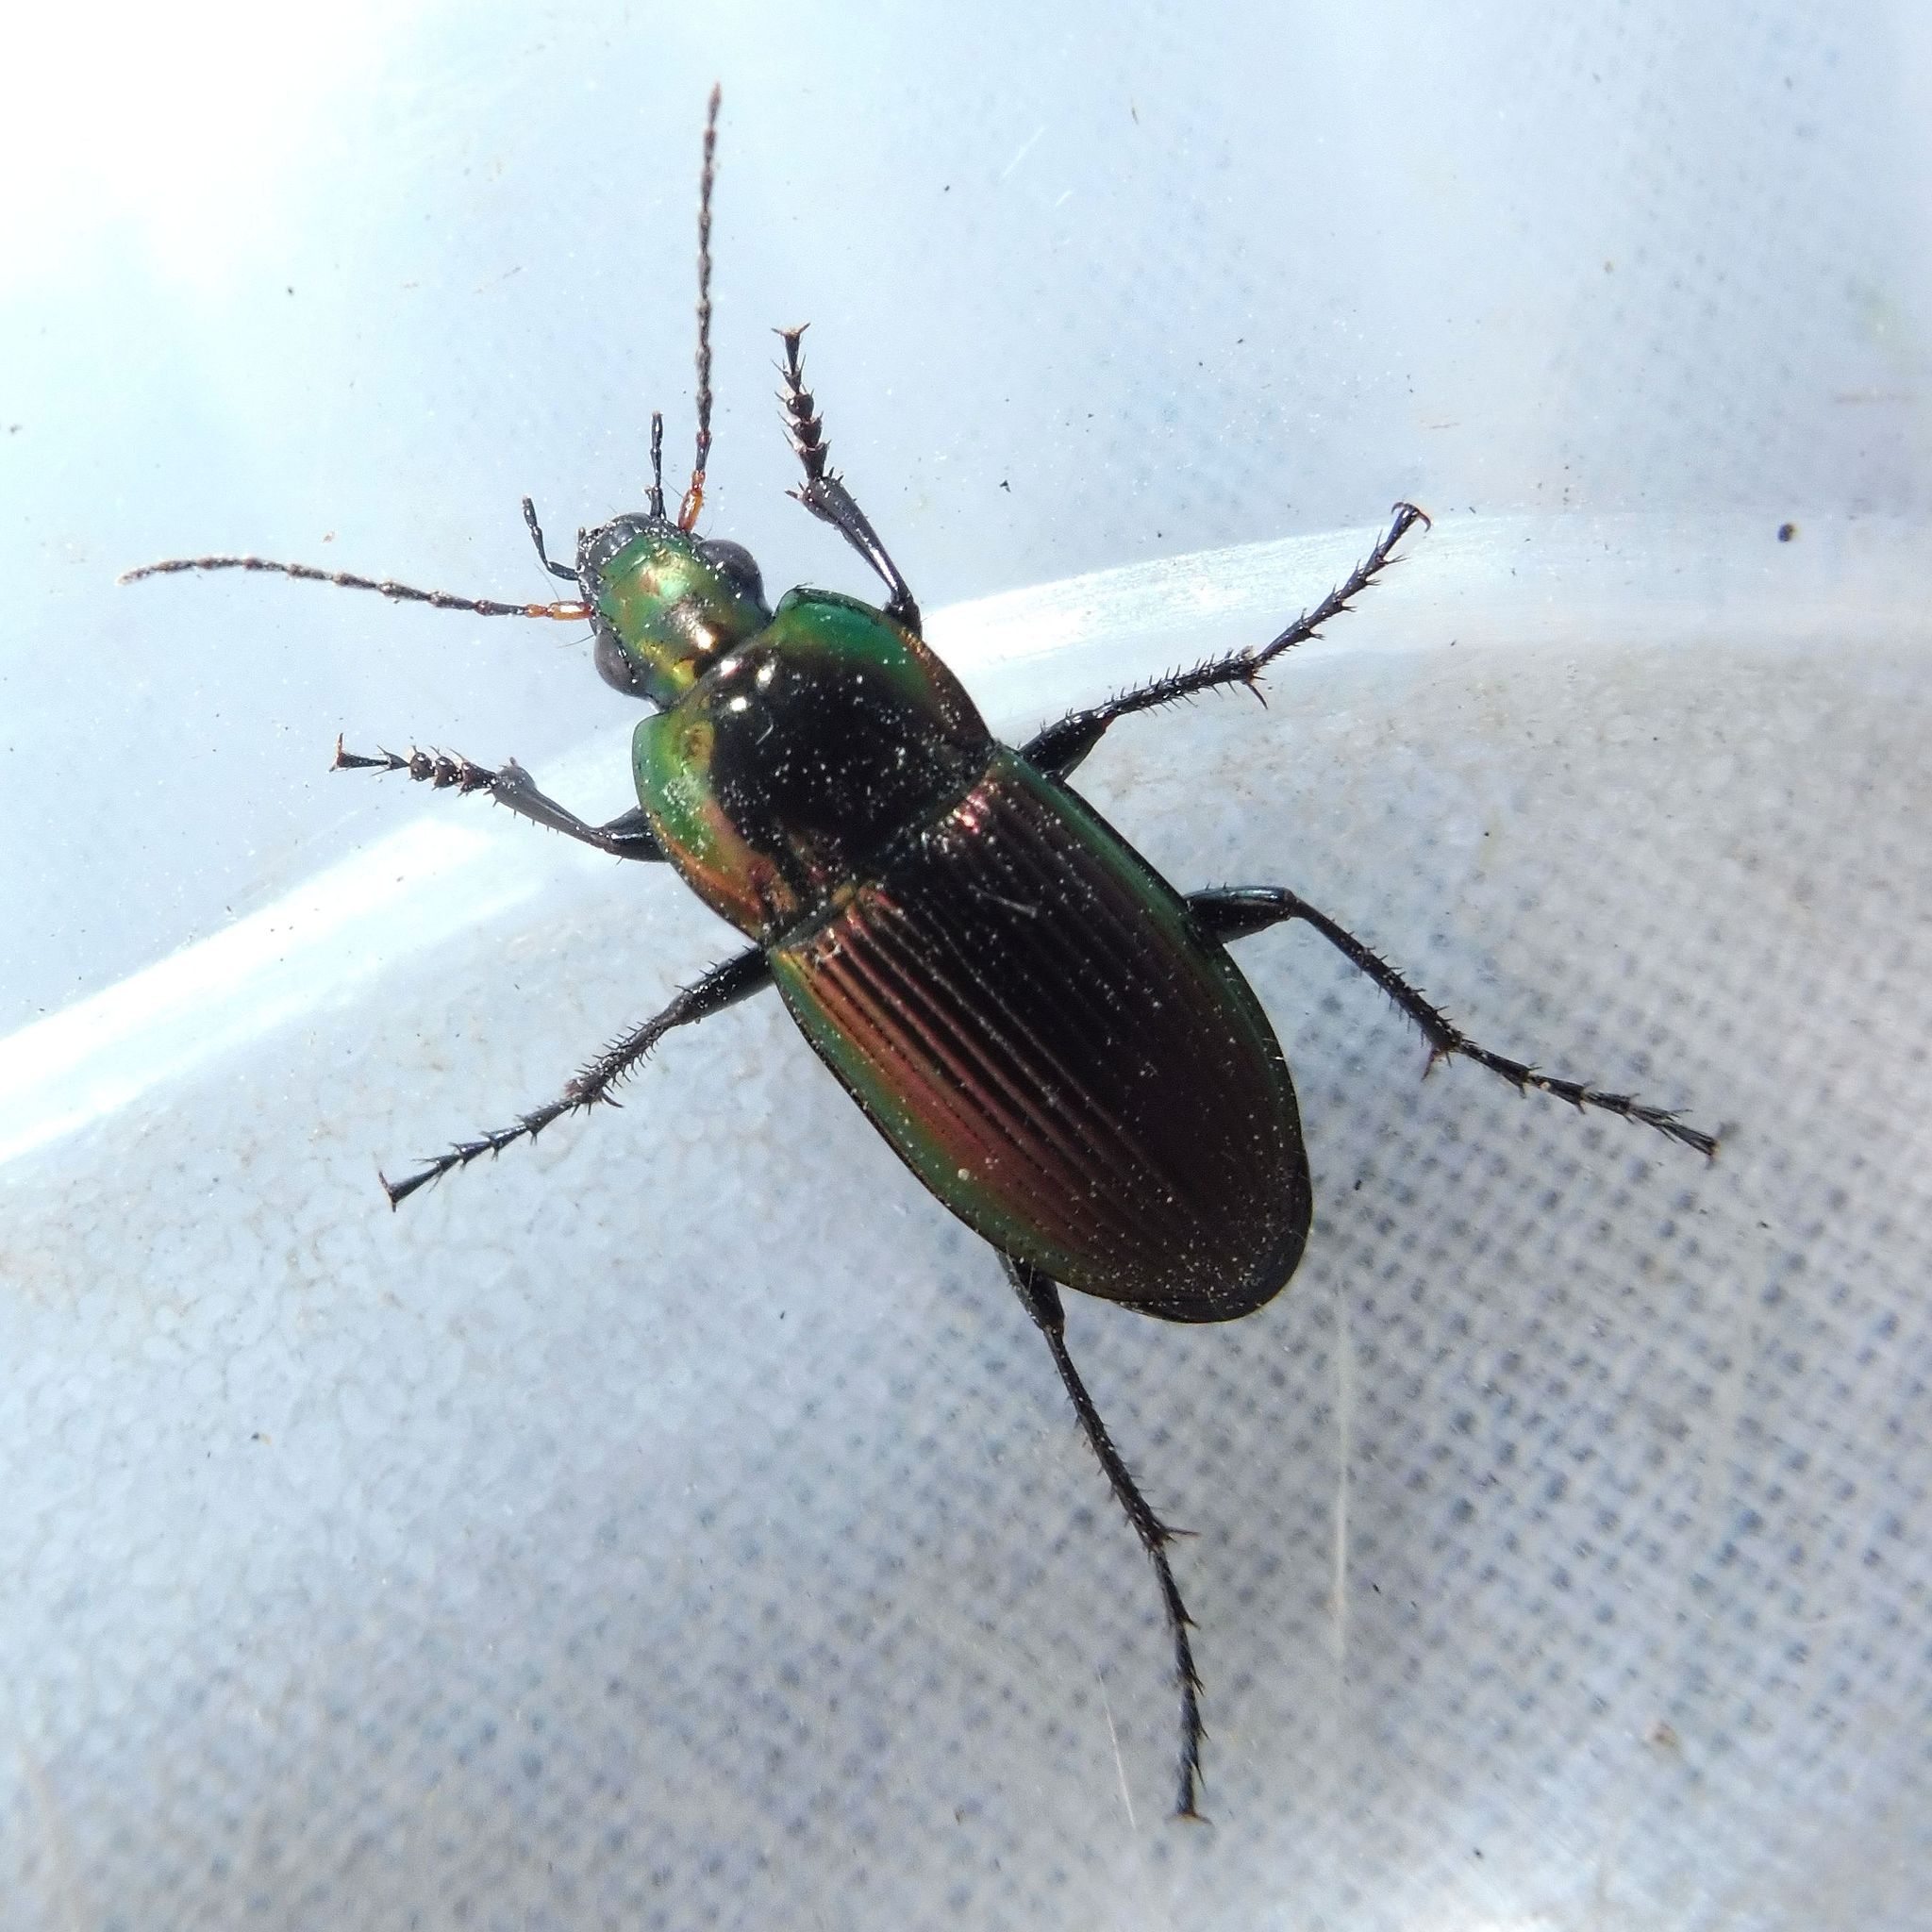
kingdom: Animalia
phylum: Arthropoda
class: Insecta
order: Coleoptera
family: Carabidae
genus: Poecilus
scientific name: Poecilus versicolor
